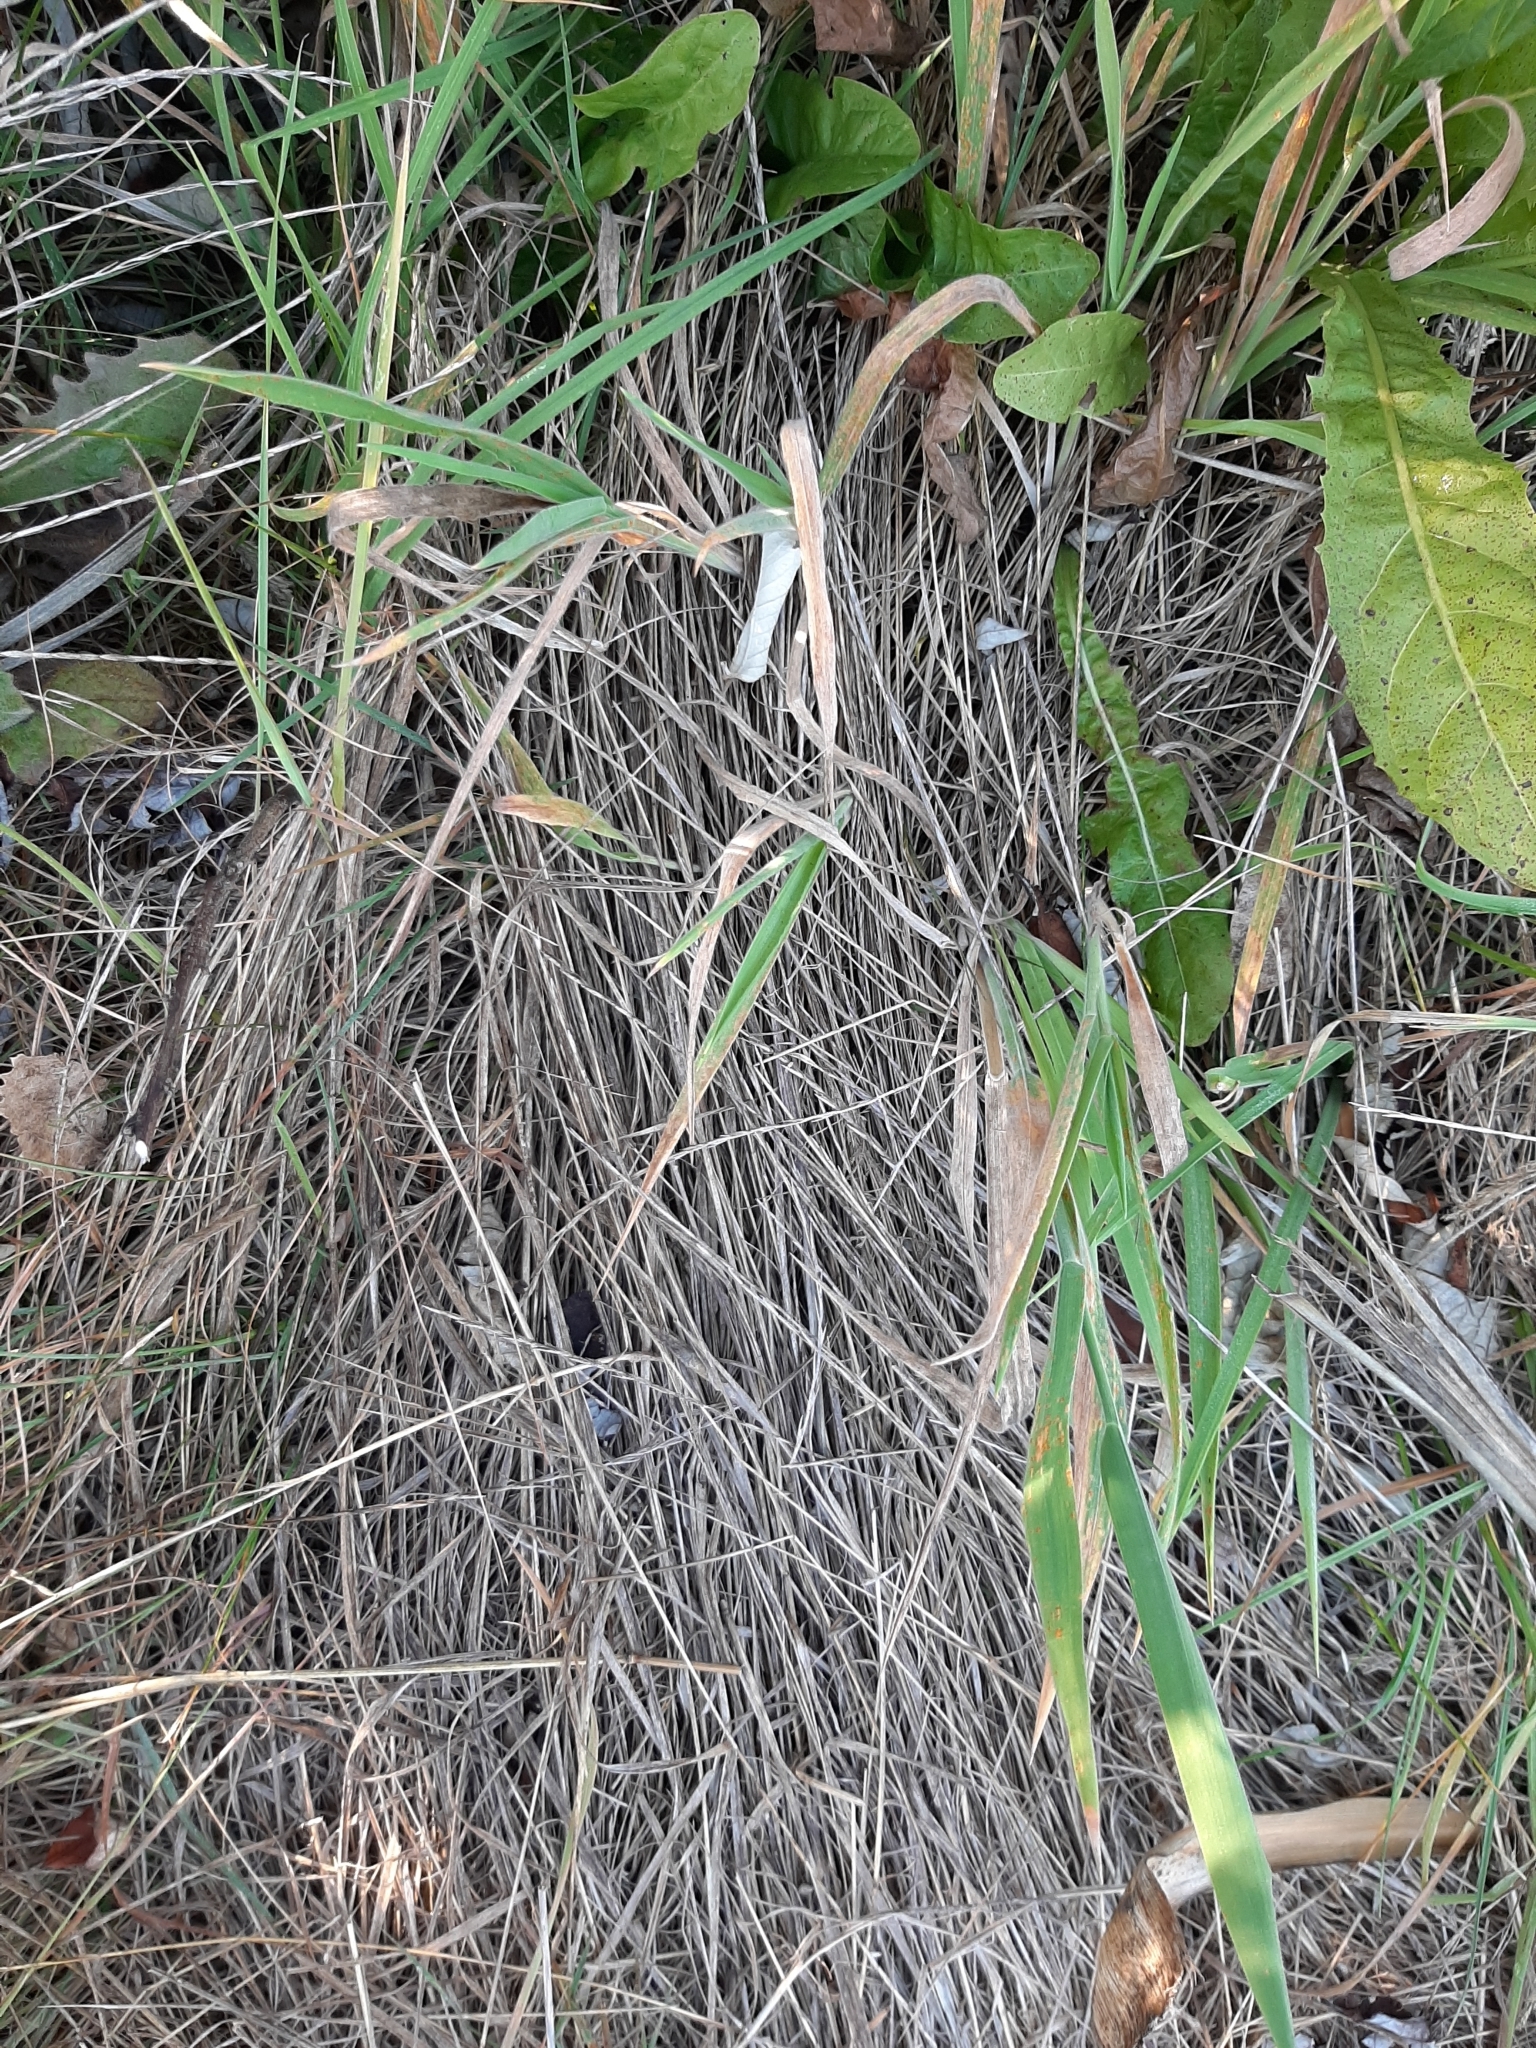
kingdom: Plantae
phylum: Tracheophyta
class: Liliopsida
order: Poales
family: Poaceae
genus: Holcus
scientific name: Holcus lanatus
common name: Yorkshire-fog
